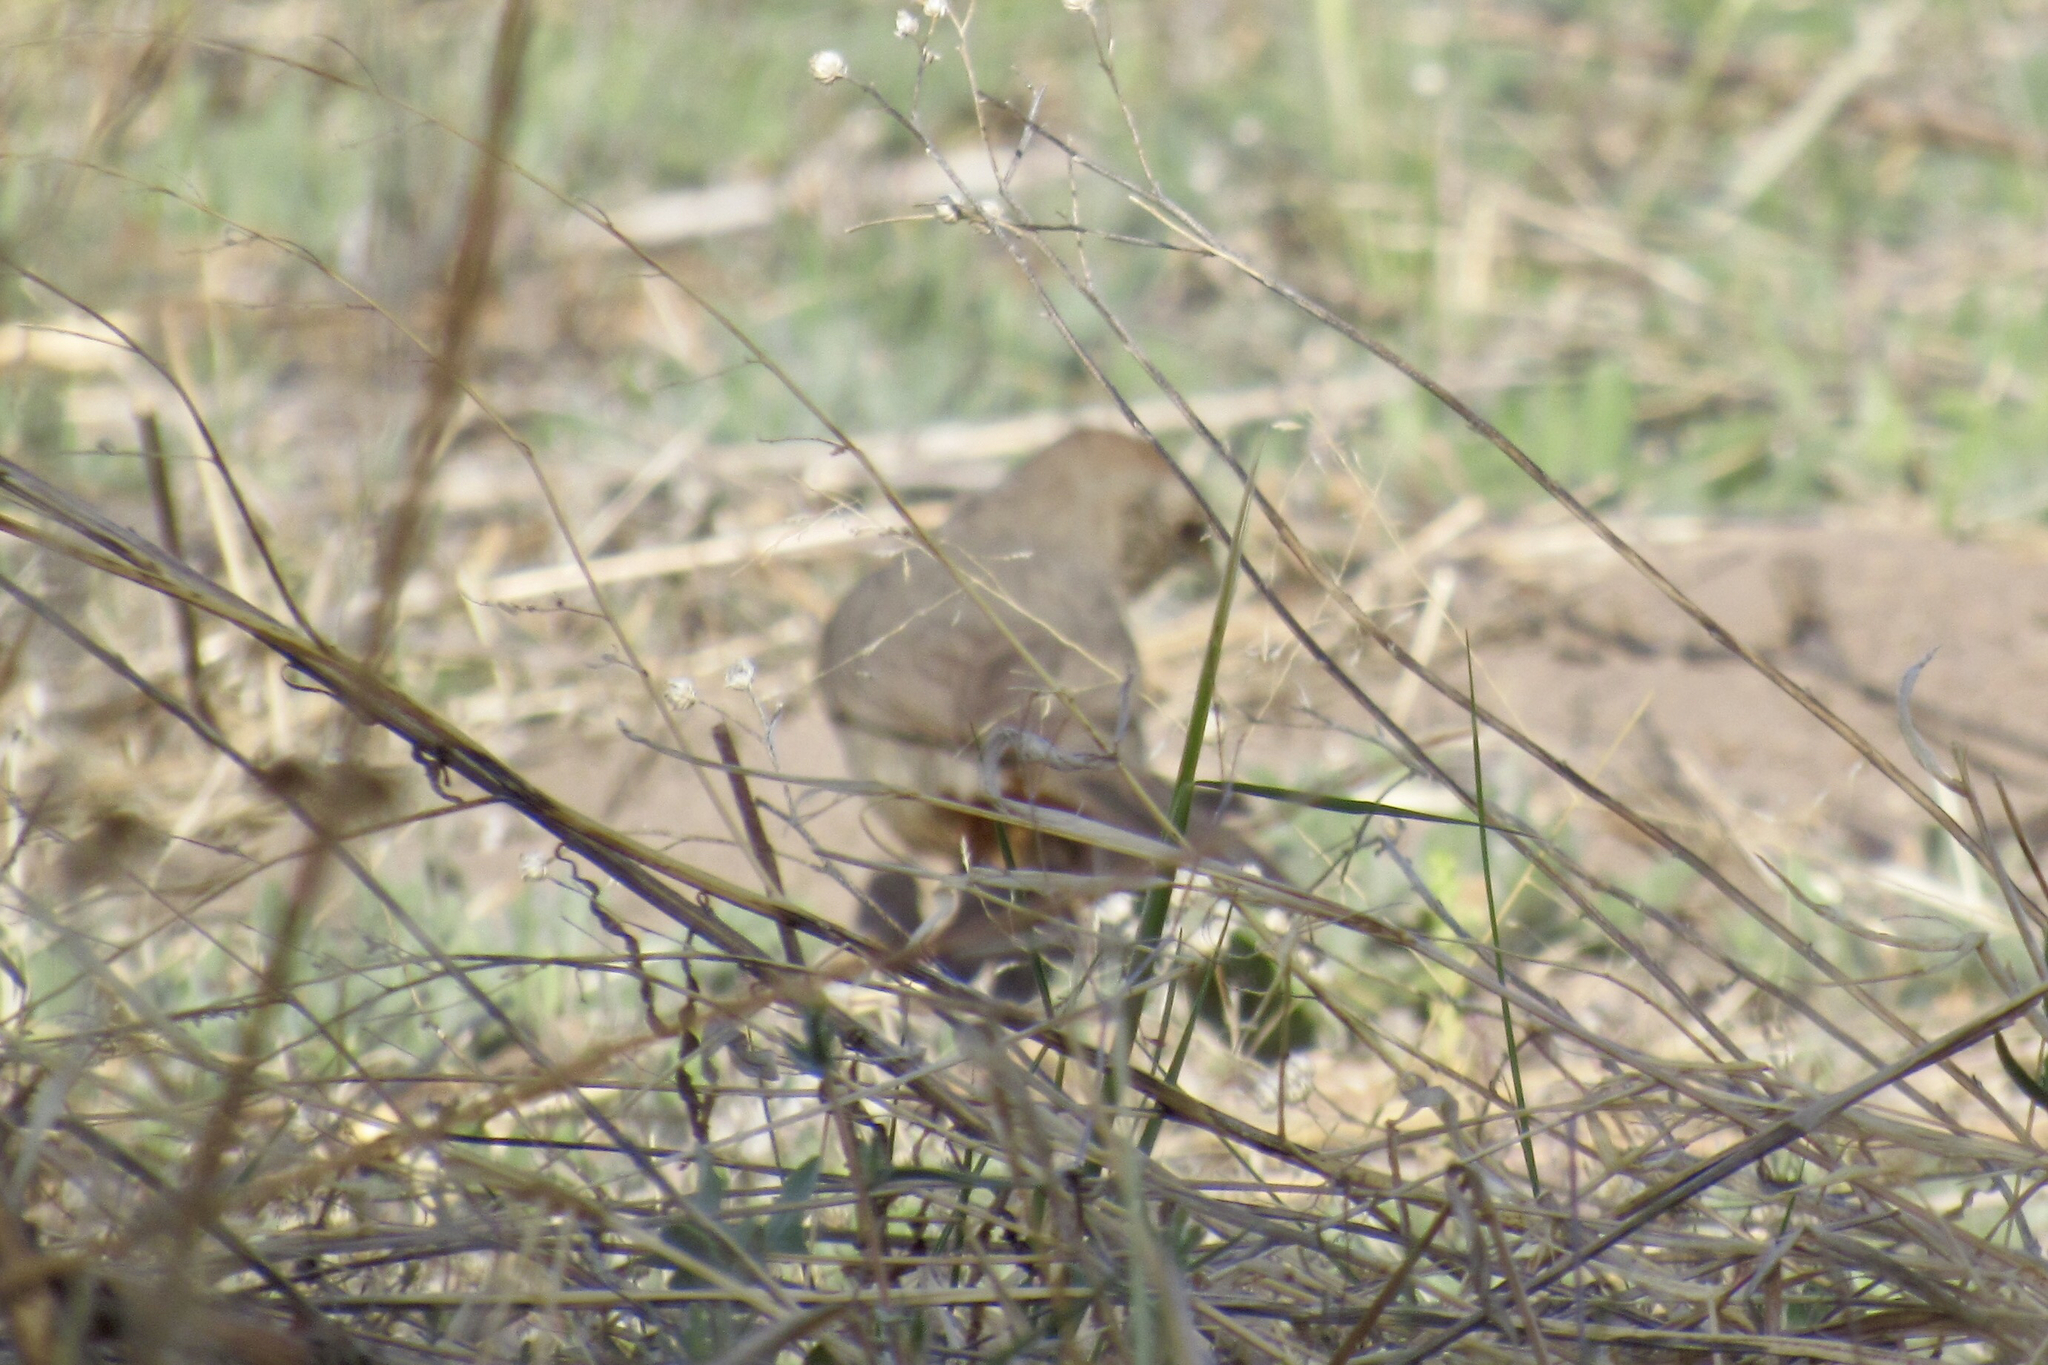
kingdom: Animalia
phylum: Chordata
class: Aves
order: Passeriformes
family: Passerellidae
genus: Melozone
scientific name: Melozone fusca
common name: Canyon towhee
